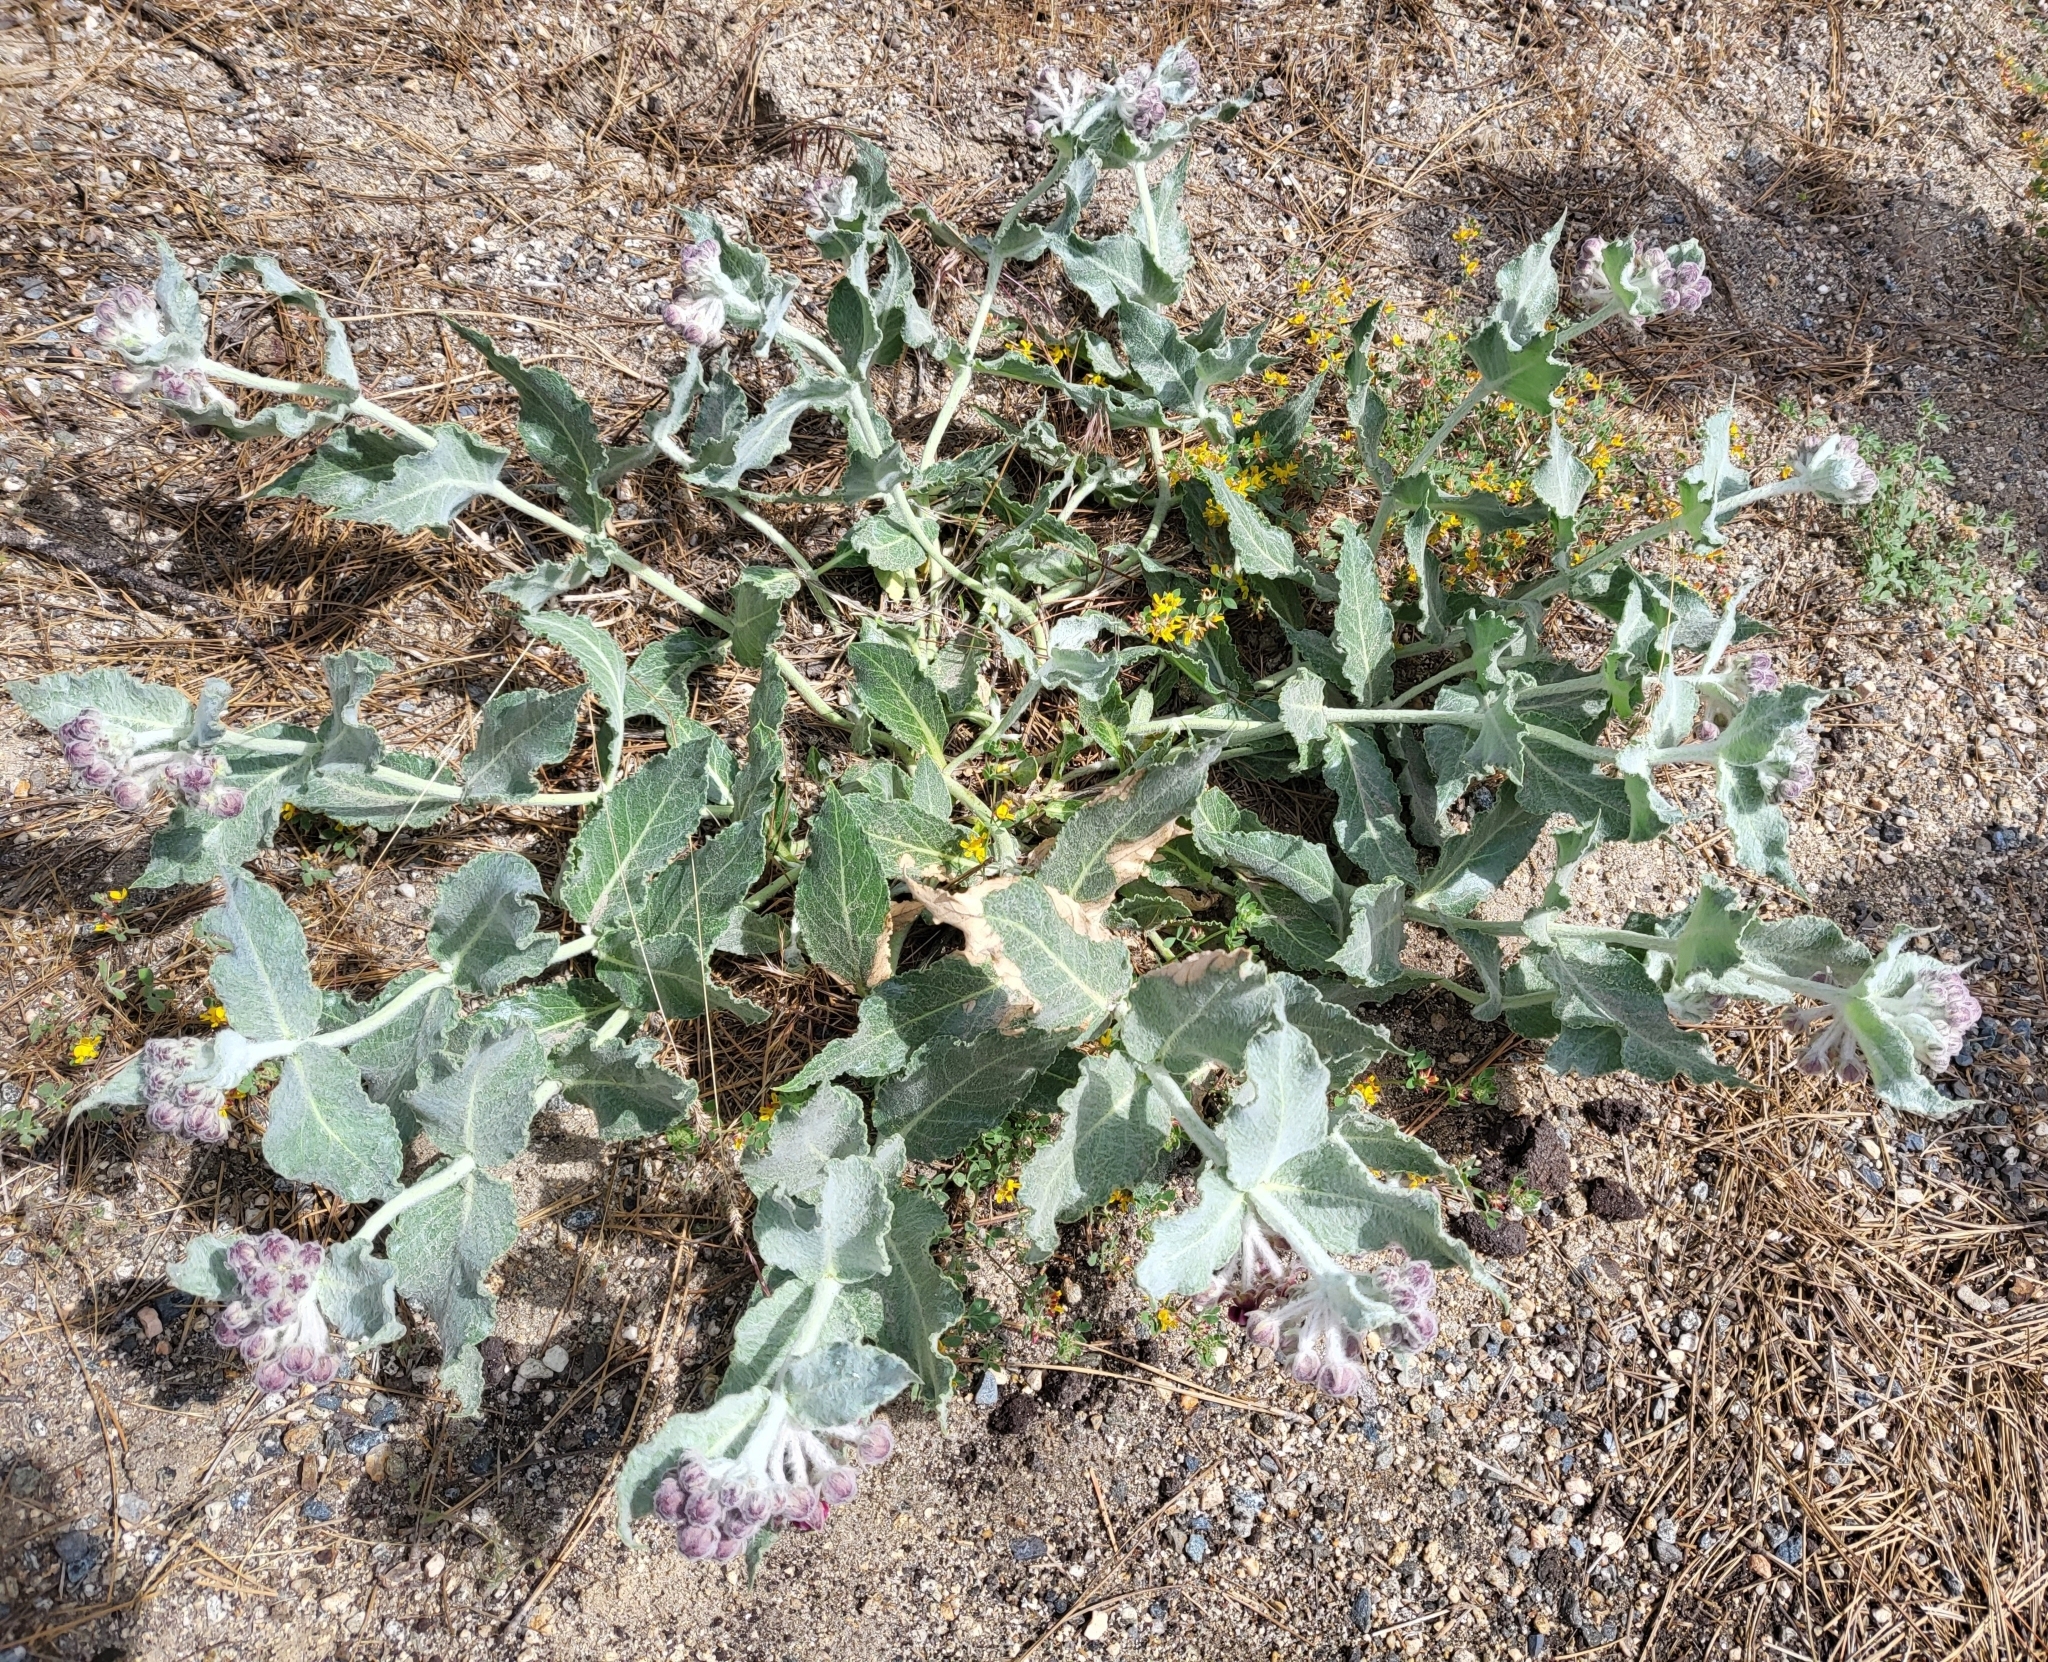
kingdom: Plantae
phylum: Tracheophyta
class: Magnoliopsida
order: Gentianales
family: Apocynaceae
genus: Asclepias
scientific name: Asclepias californica
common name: California milkweed
